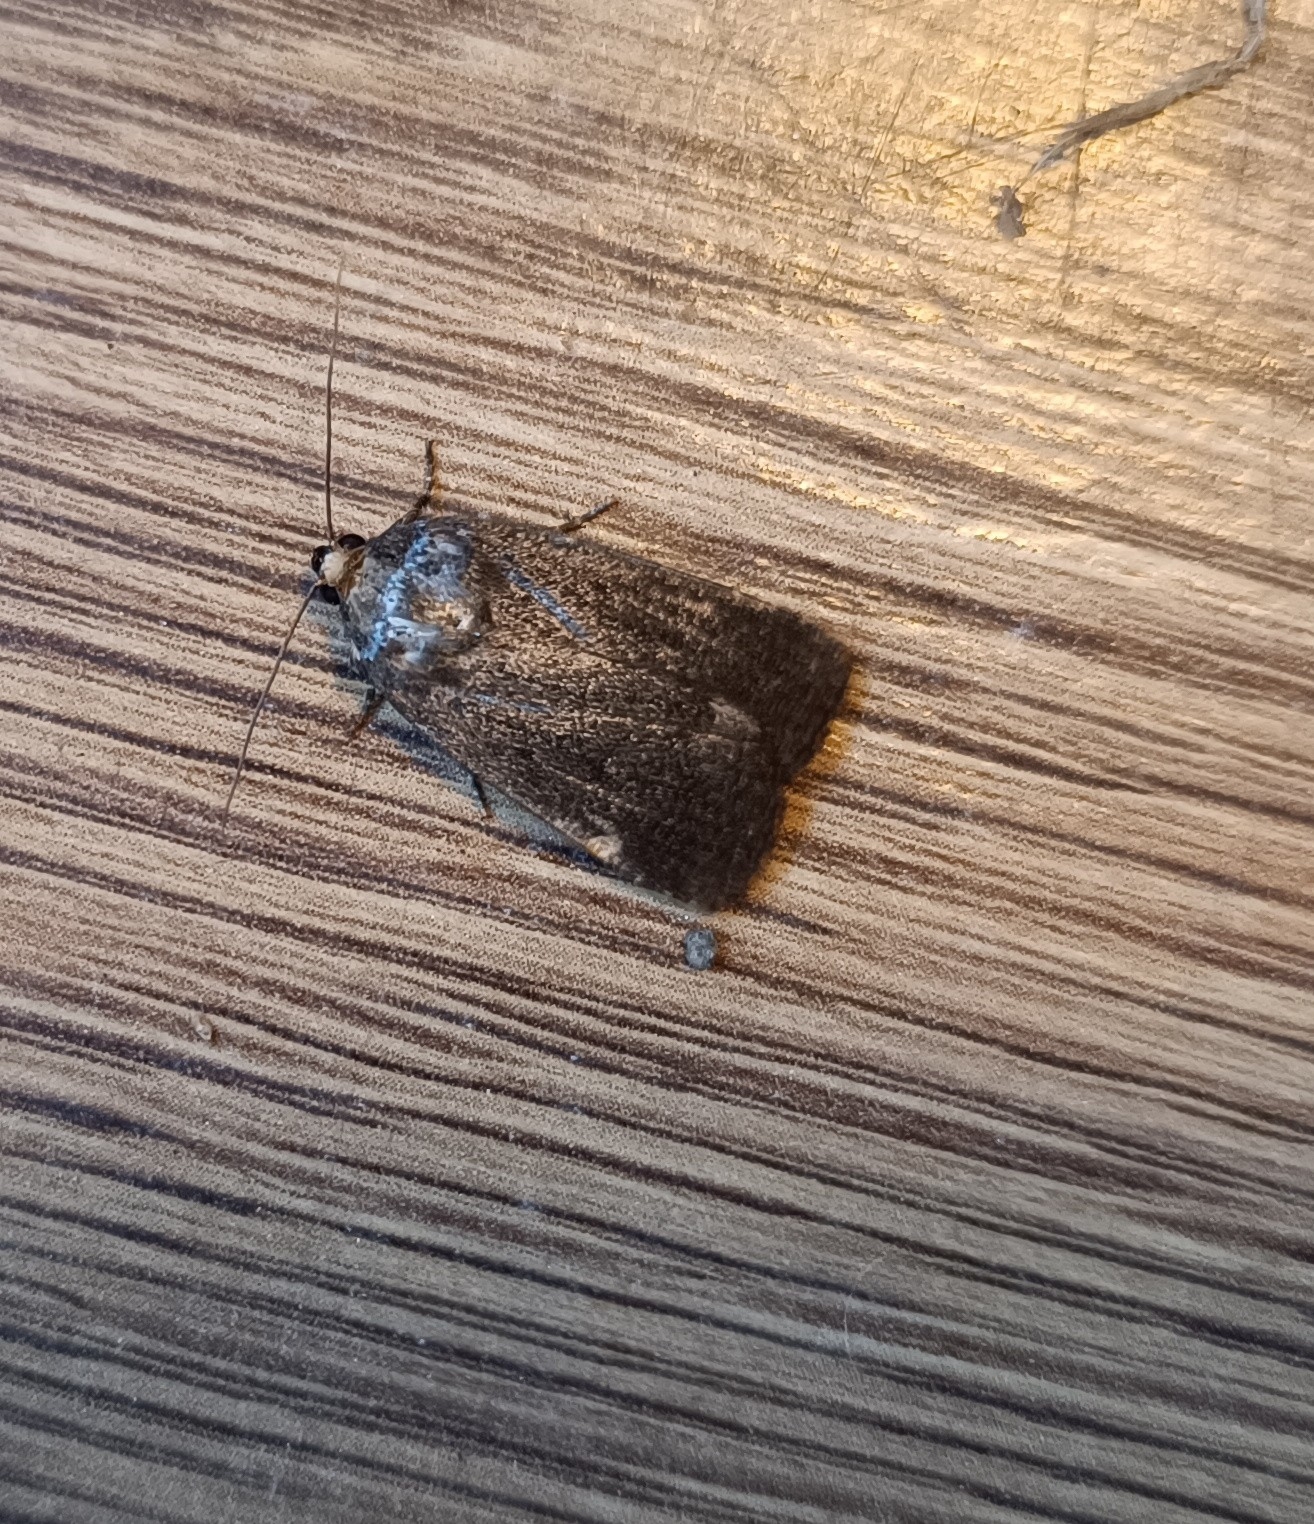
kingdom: Animalia
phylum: Arthropoda
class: Insecta
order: Lepidoptera
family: Noctuidae
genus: Amphipyra
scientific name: Amphipyra tragopoginis
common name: Mouse moth
